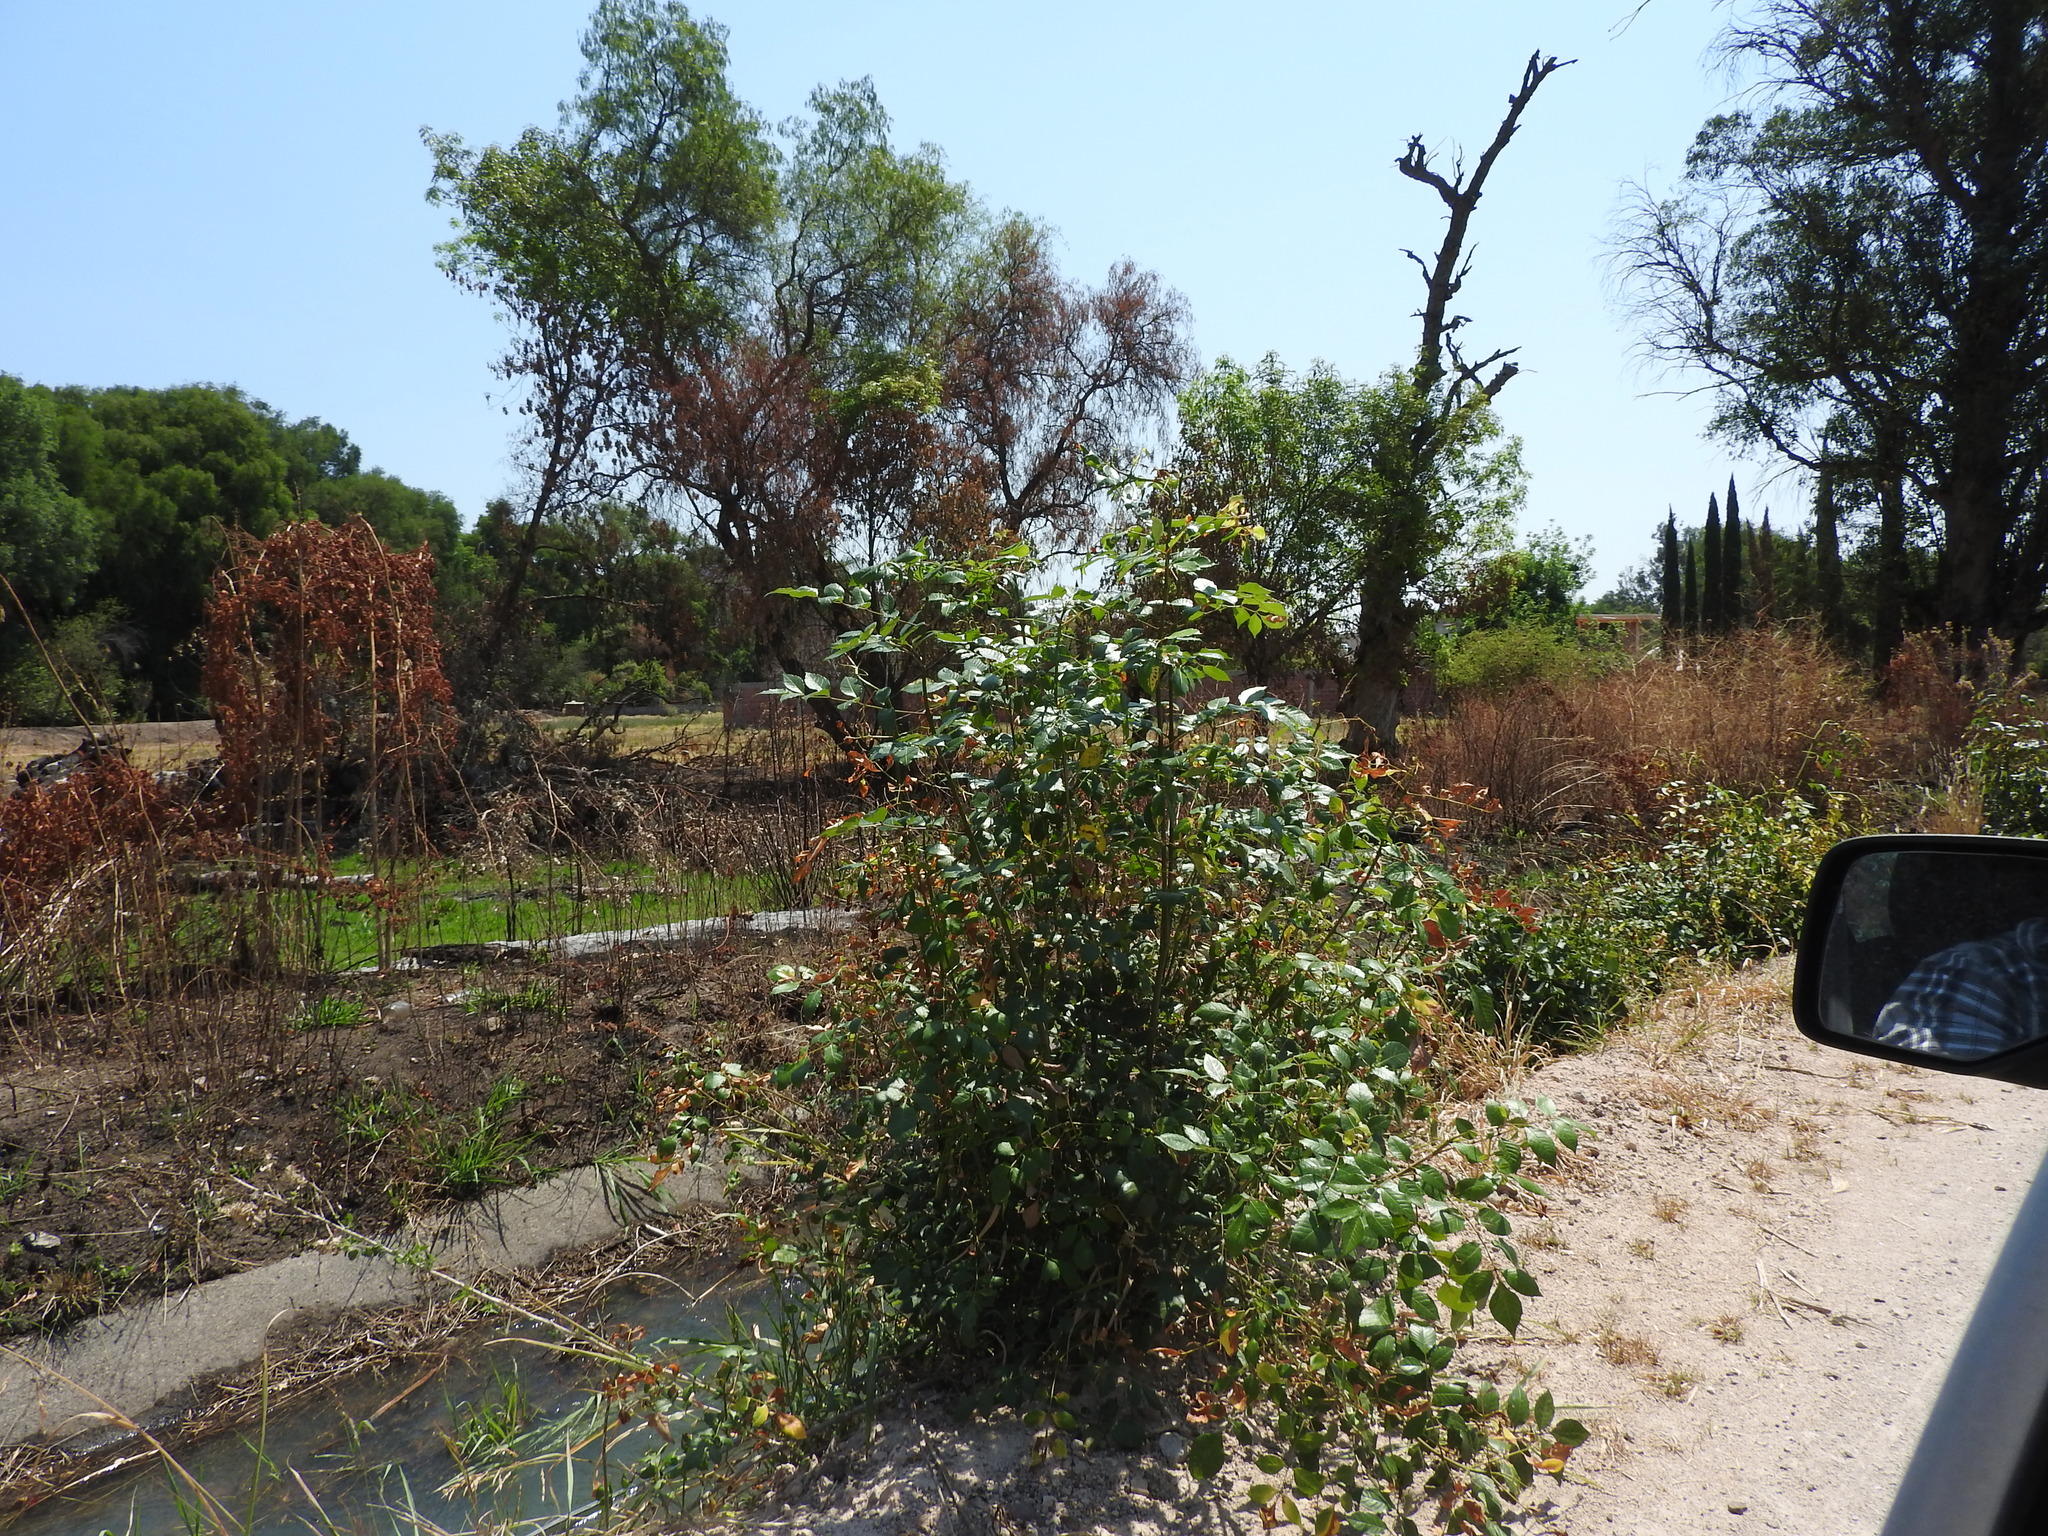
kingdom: Plantae
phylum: Tracheophyta
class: Magnoliopsida
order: Lamiales
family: Oleaceae
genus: Fraxinus
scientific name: Fraxinus uhdei
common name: Shamel ash
